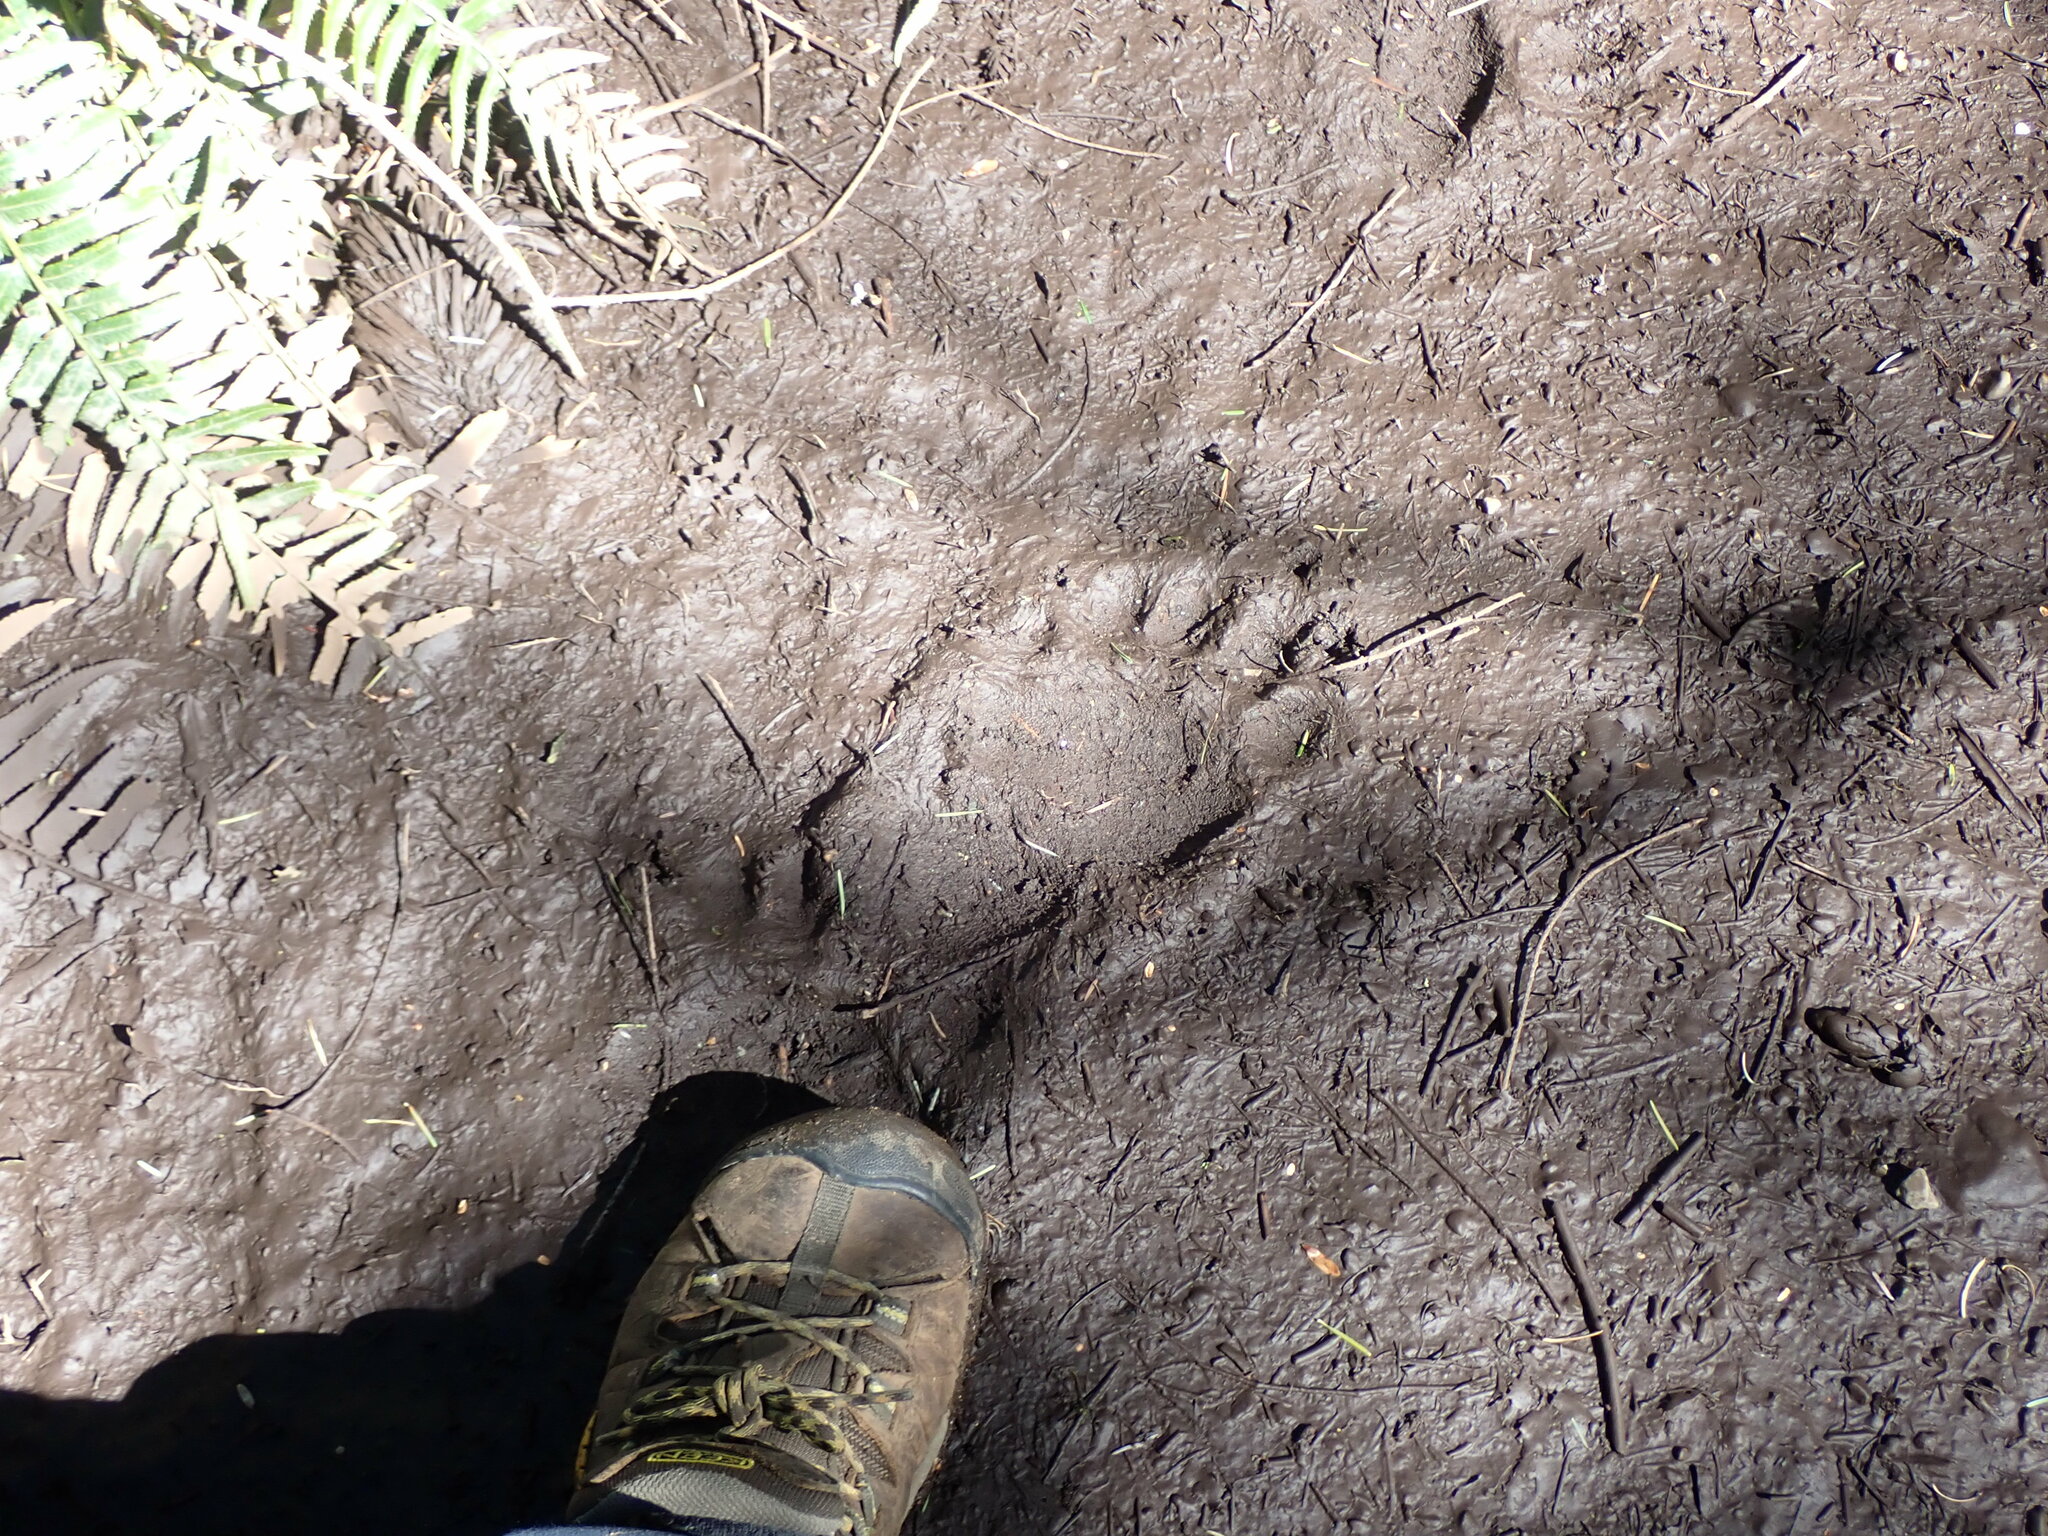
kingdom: Animalia
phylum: Chordata
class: Mammalia
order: Carnivora
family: Ursidae
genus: Ursus
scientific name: Ursus americanus
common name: American black bear
